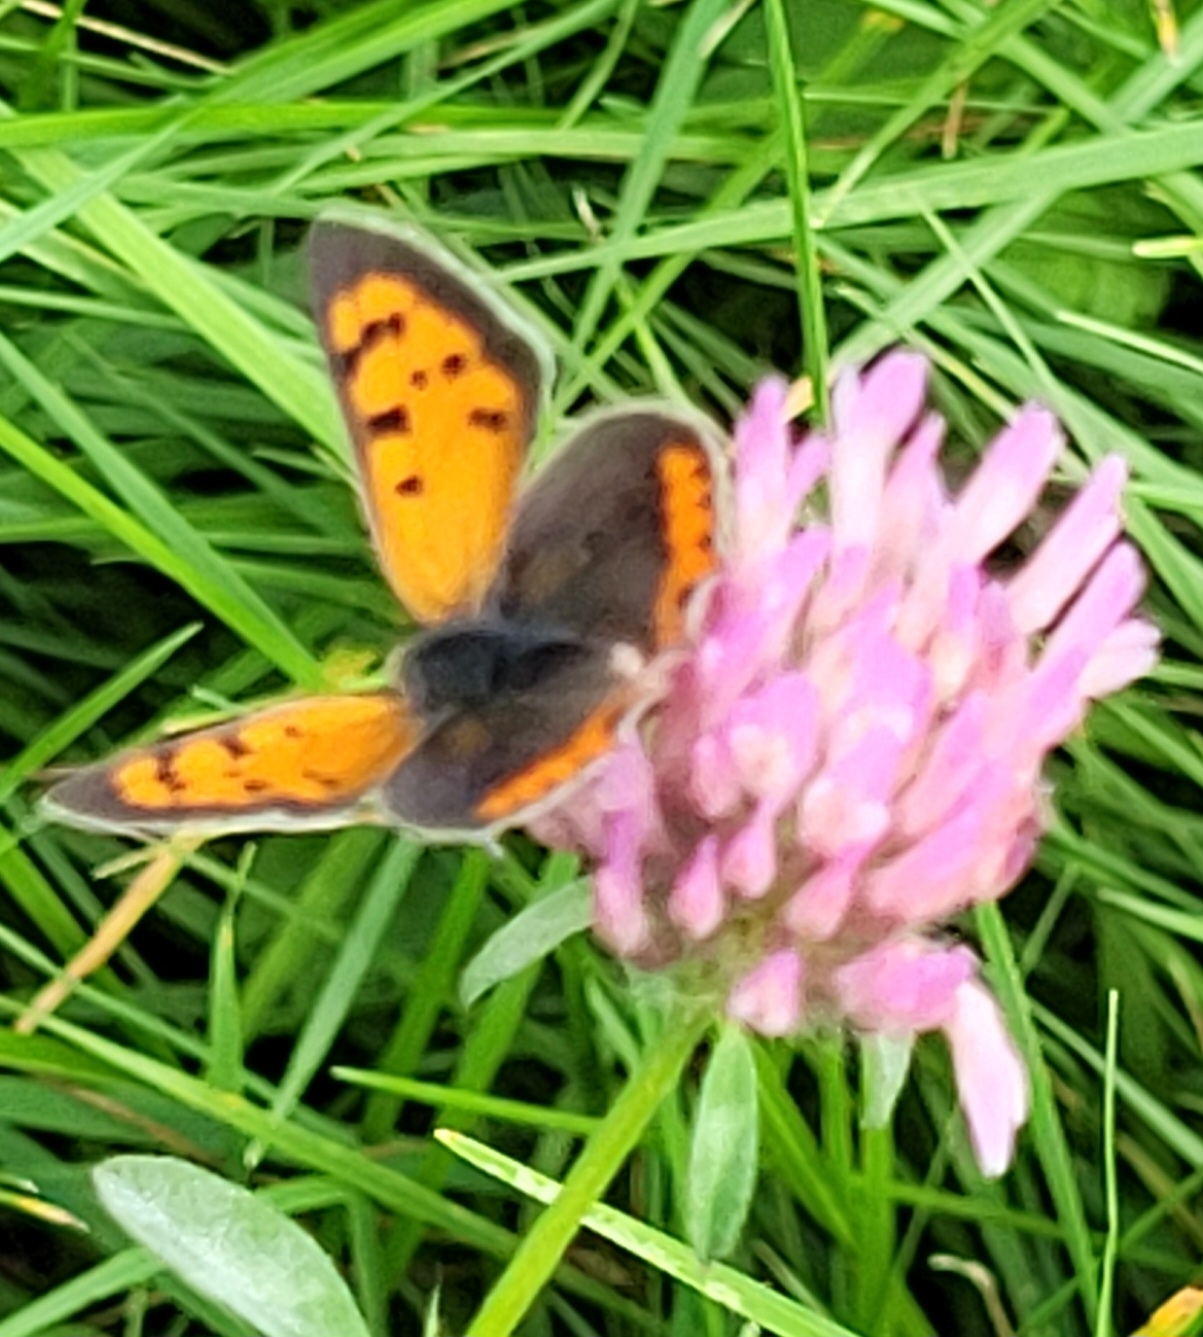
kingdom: Animalia
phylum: Arthropoda
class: Insecta
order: Lepidoptera
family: Lycaenidae
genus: Lycaena
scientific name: Lycaena phlaeas
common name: Small copper
